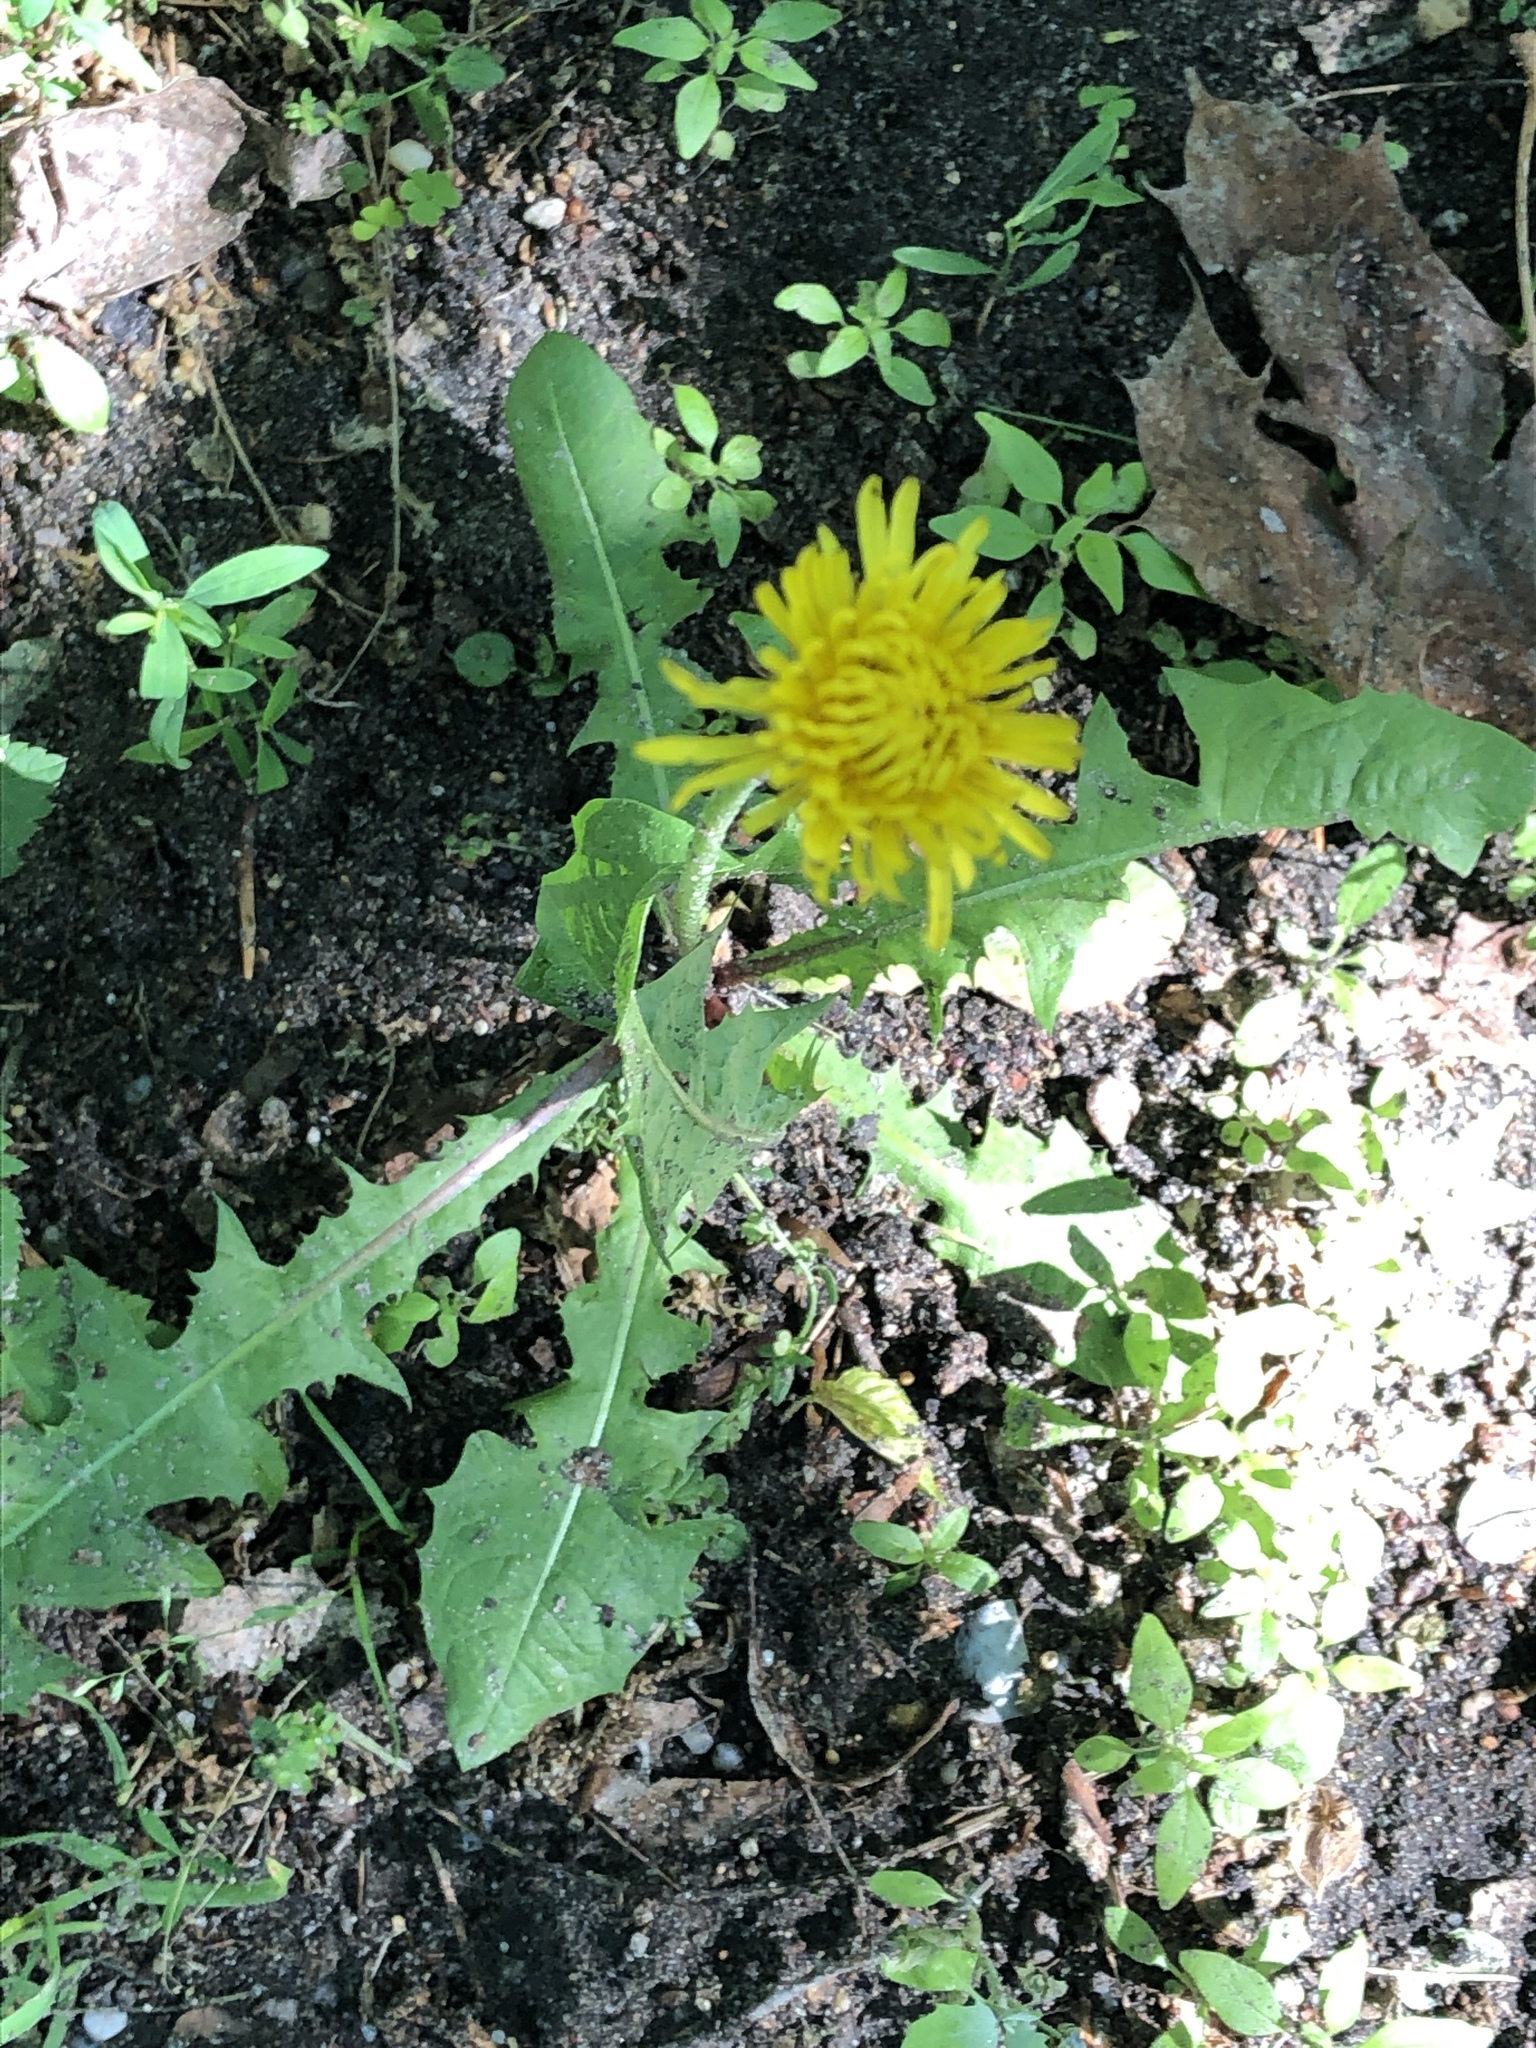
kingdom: Plantae
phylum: Tracheophyta
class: Magnoliopsida
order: Asterales
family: Asteraceae
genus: Taraxacum
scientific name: Taraxacum officinale
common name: Common dandelion
